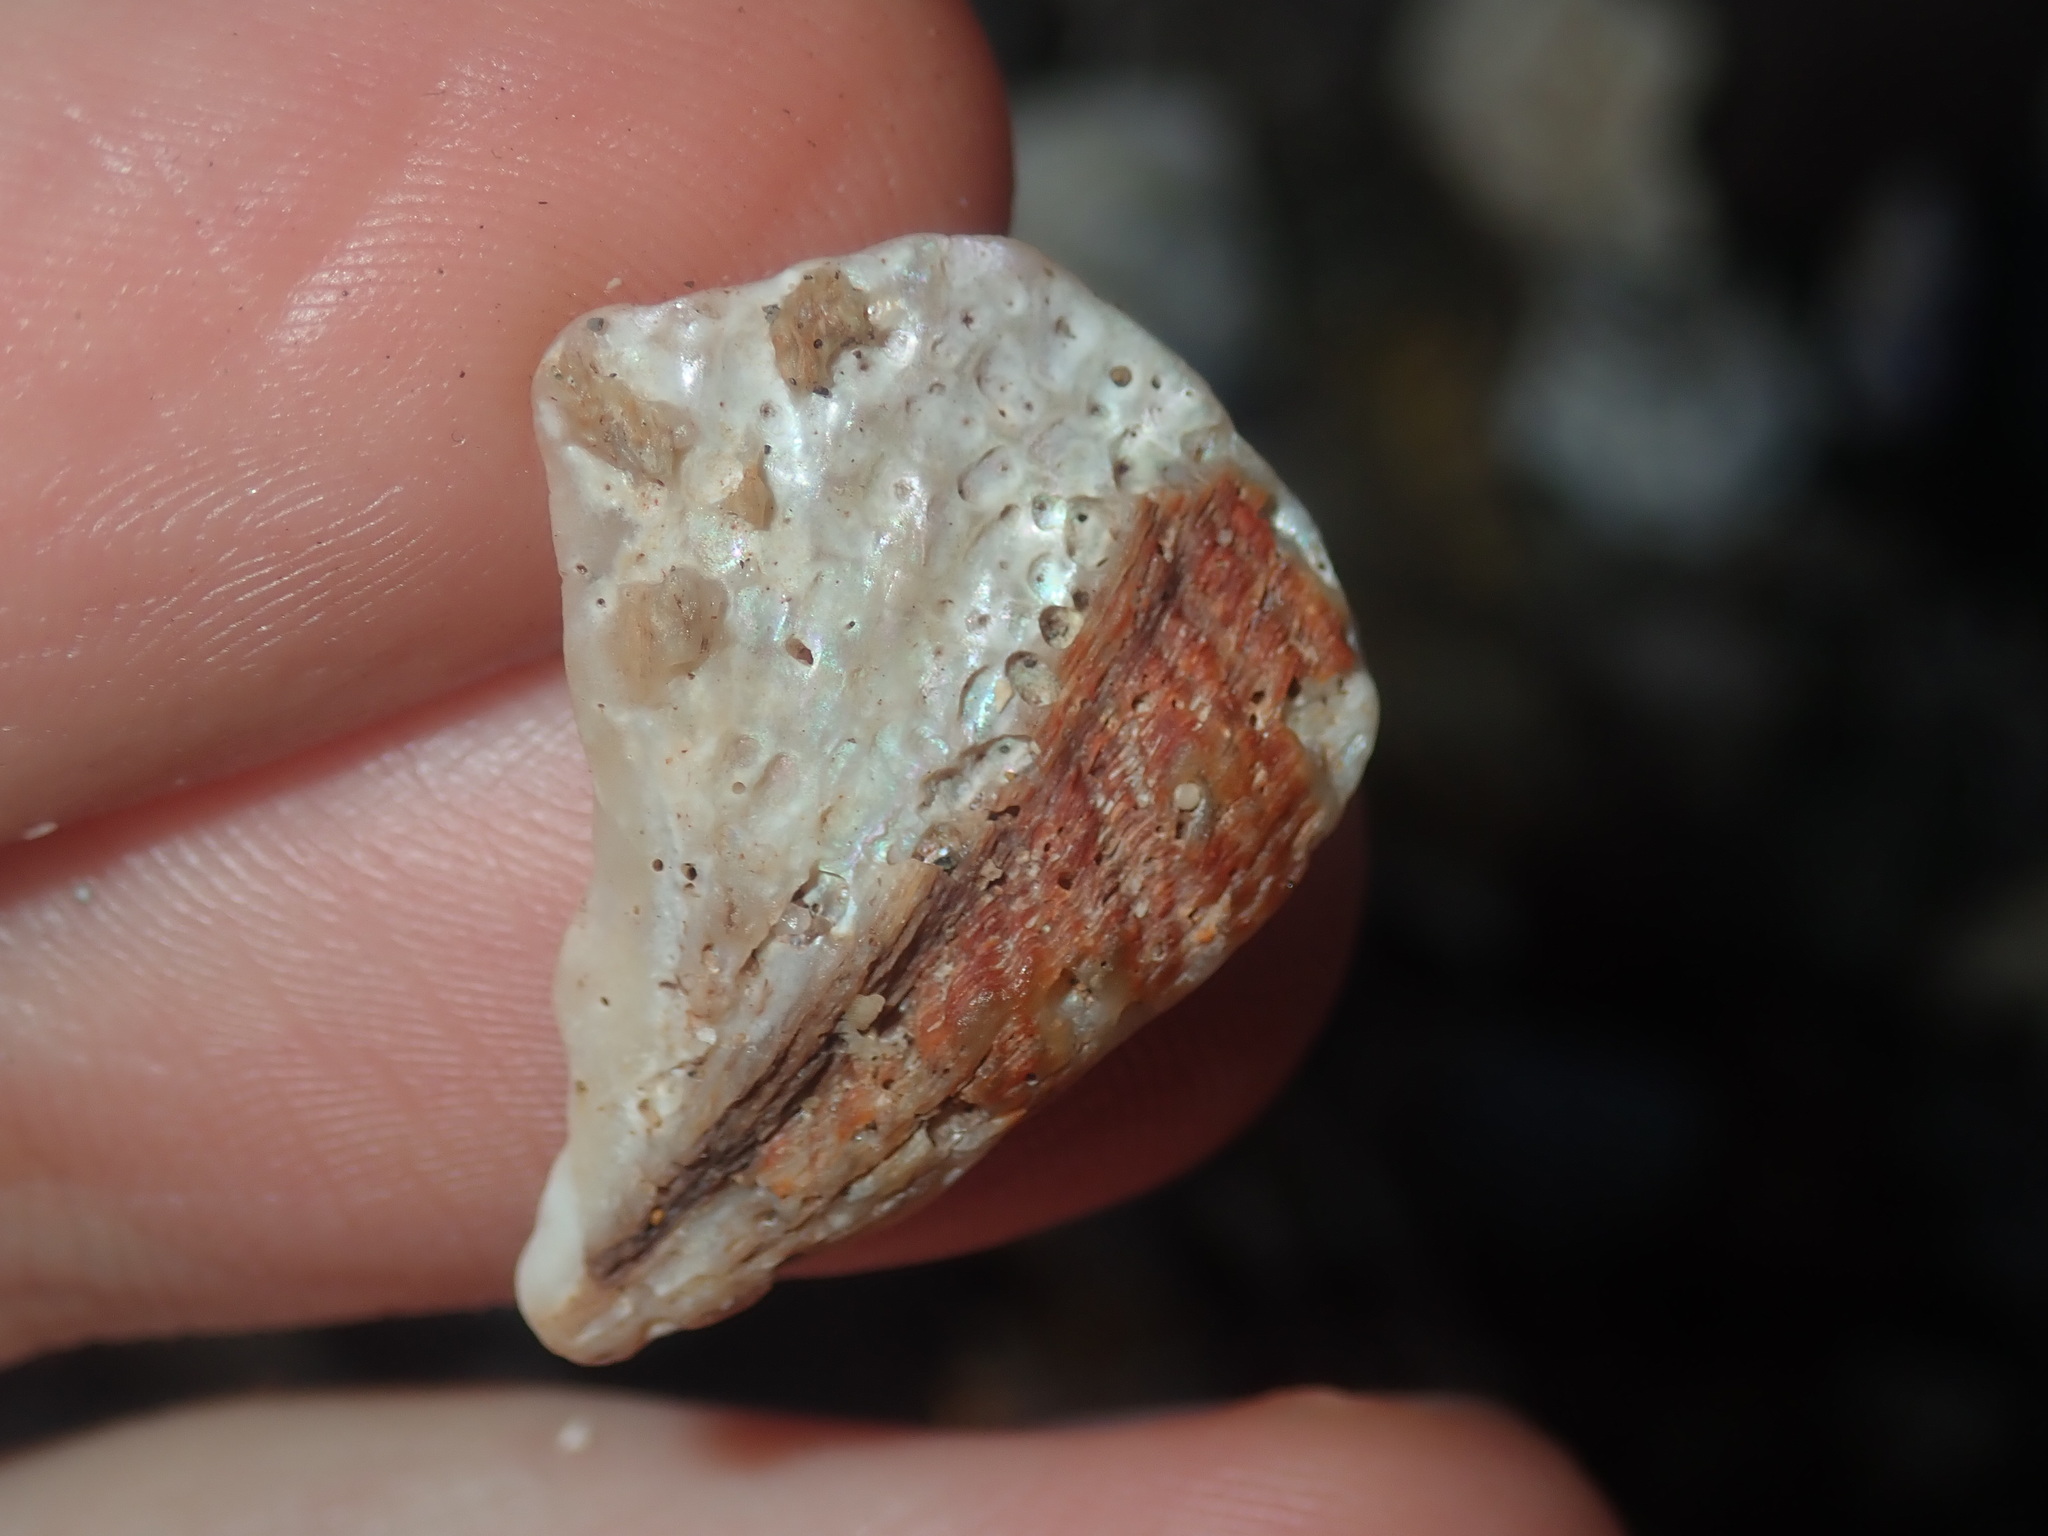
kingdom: Animalia
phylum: Mollusca
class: Gastropoda
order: Lepetellida
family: Haliotidae
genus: Haliotis
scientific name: Haliotis rubra
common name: Blacklip abalone
